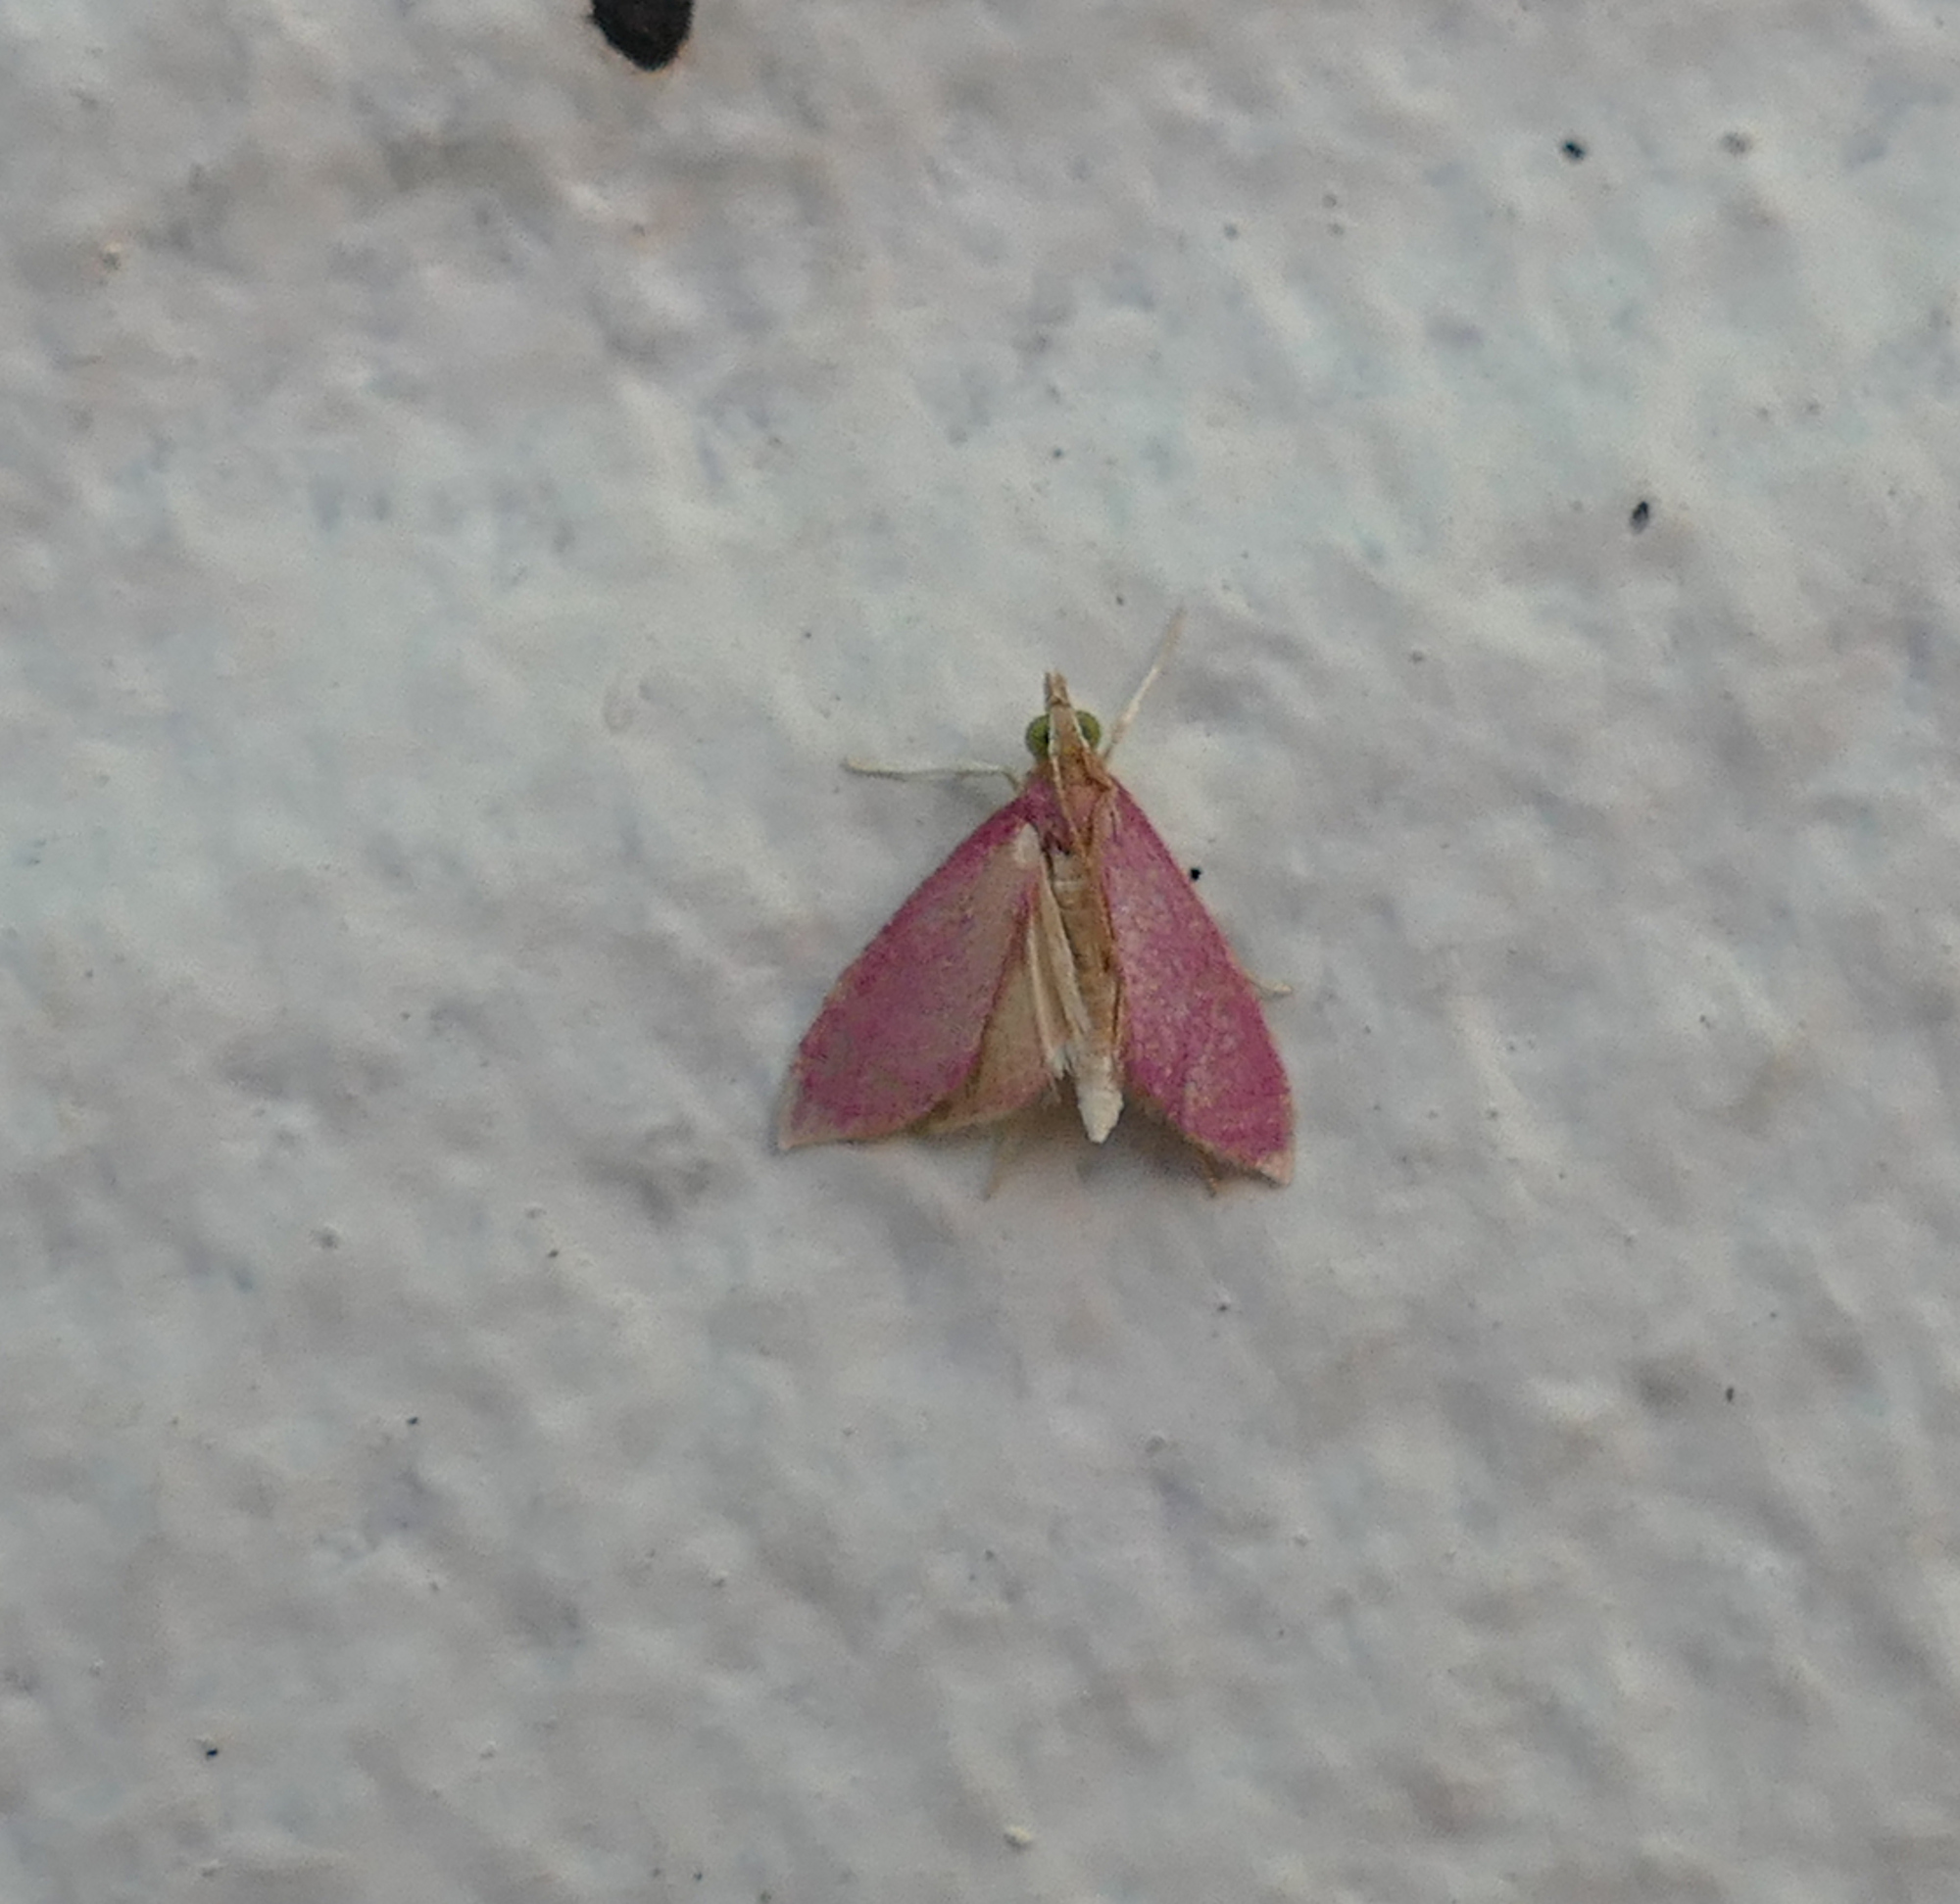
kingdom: Animalia
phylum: Arthropoda
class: Insecta
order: Lepidoptera
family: Crambidae
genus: Pyrausta
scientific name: Pyrausta inornatalis
